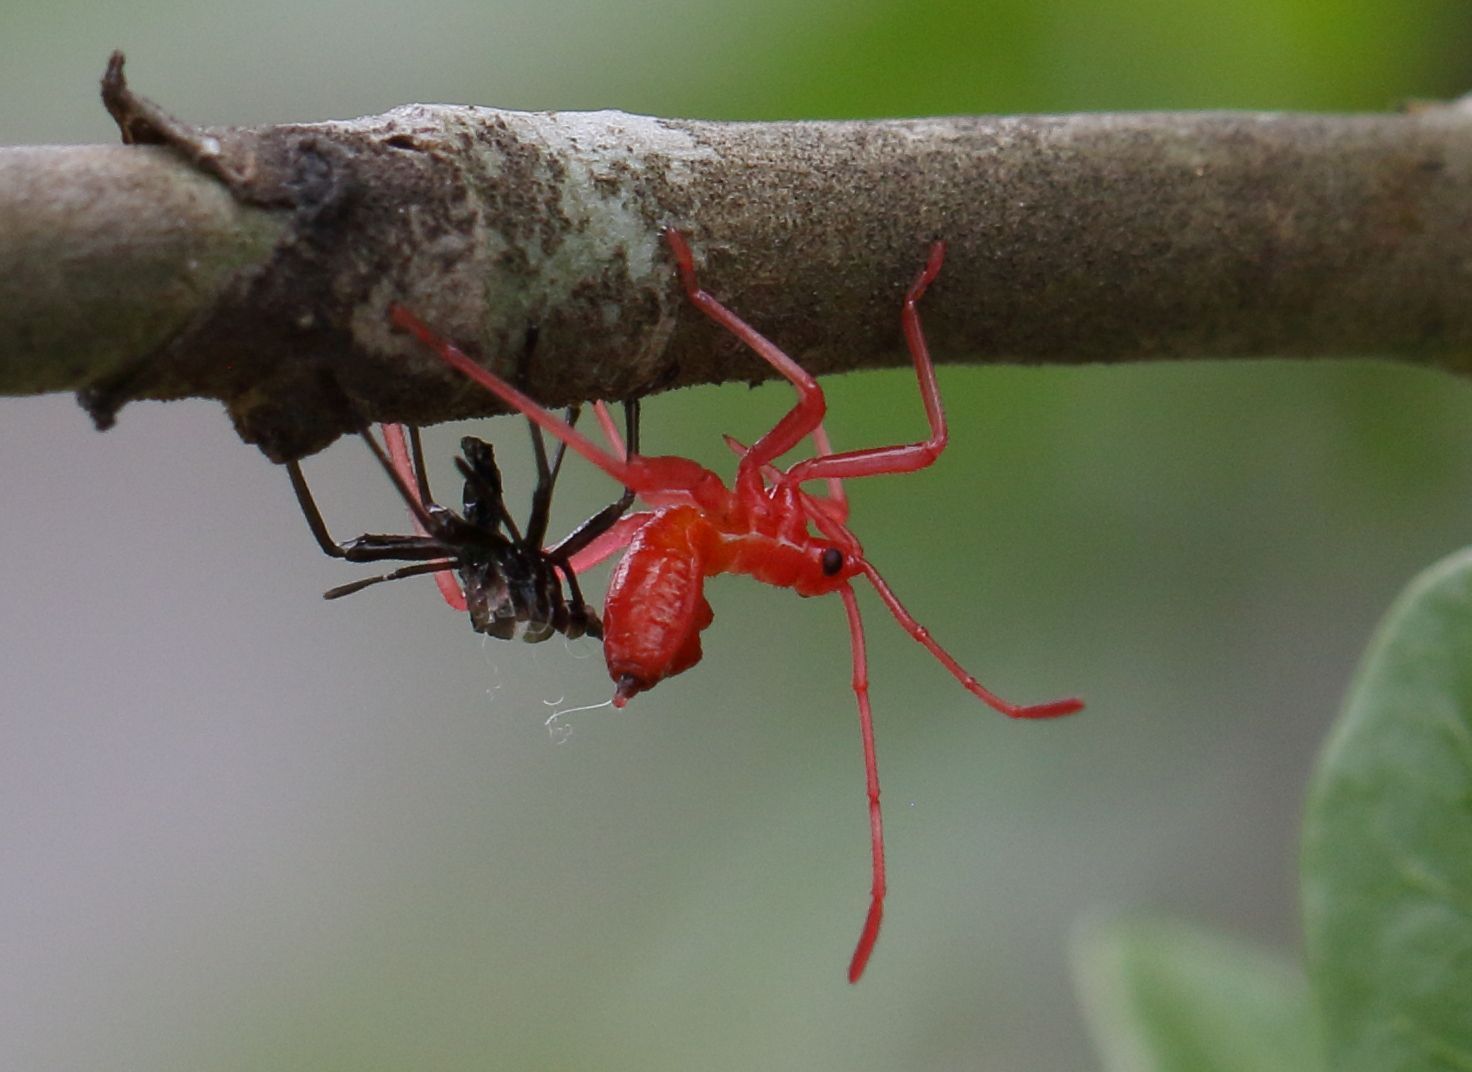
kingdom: Animalia
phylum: Arthropoda
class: Insecta
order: Hemiptera
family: Coreidae
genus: Carlisis
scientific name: Carlisis wahlbergi
